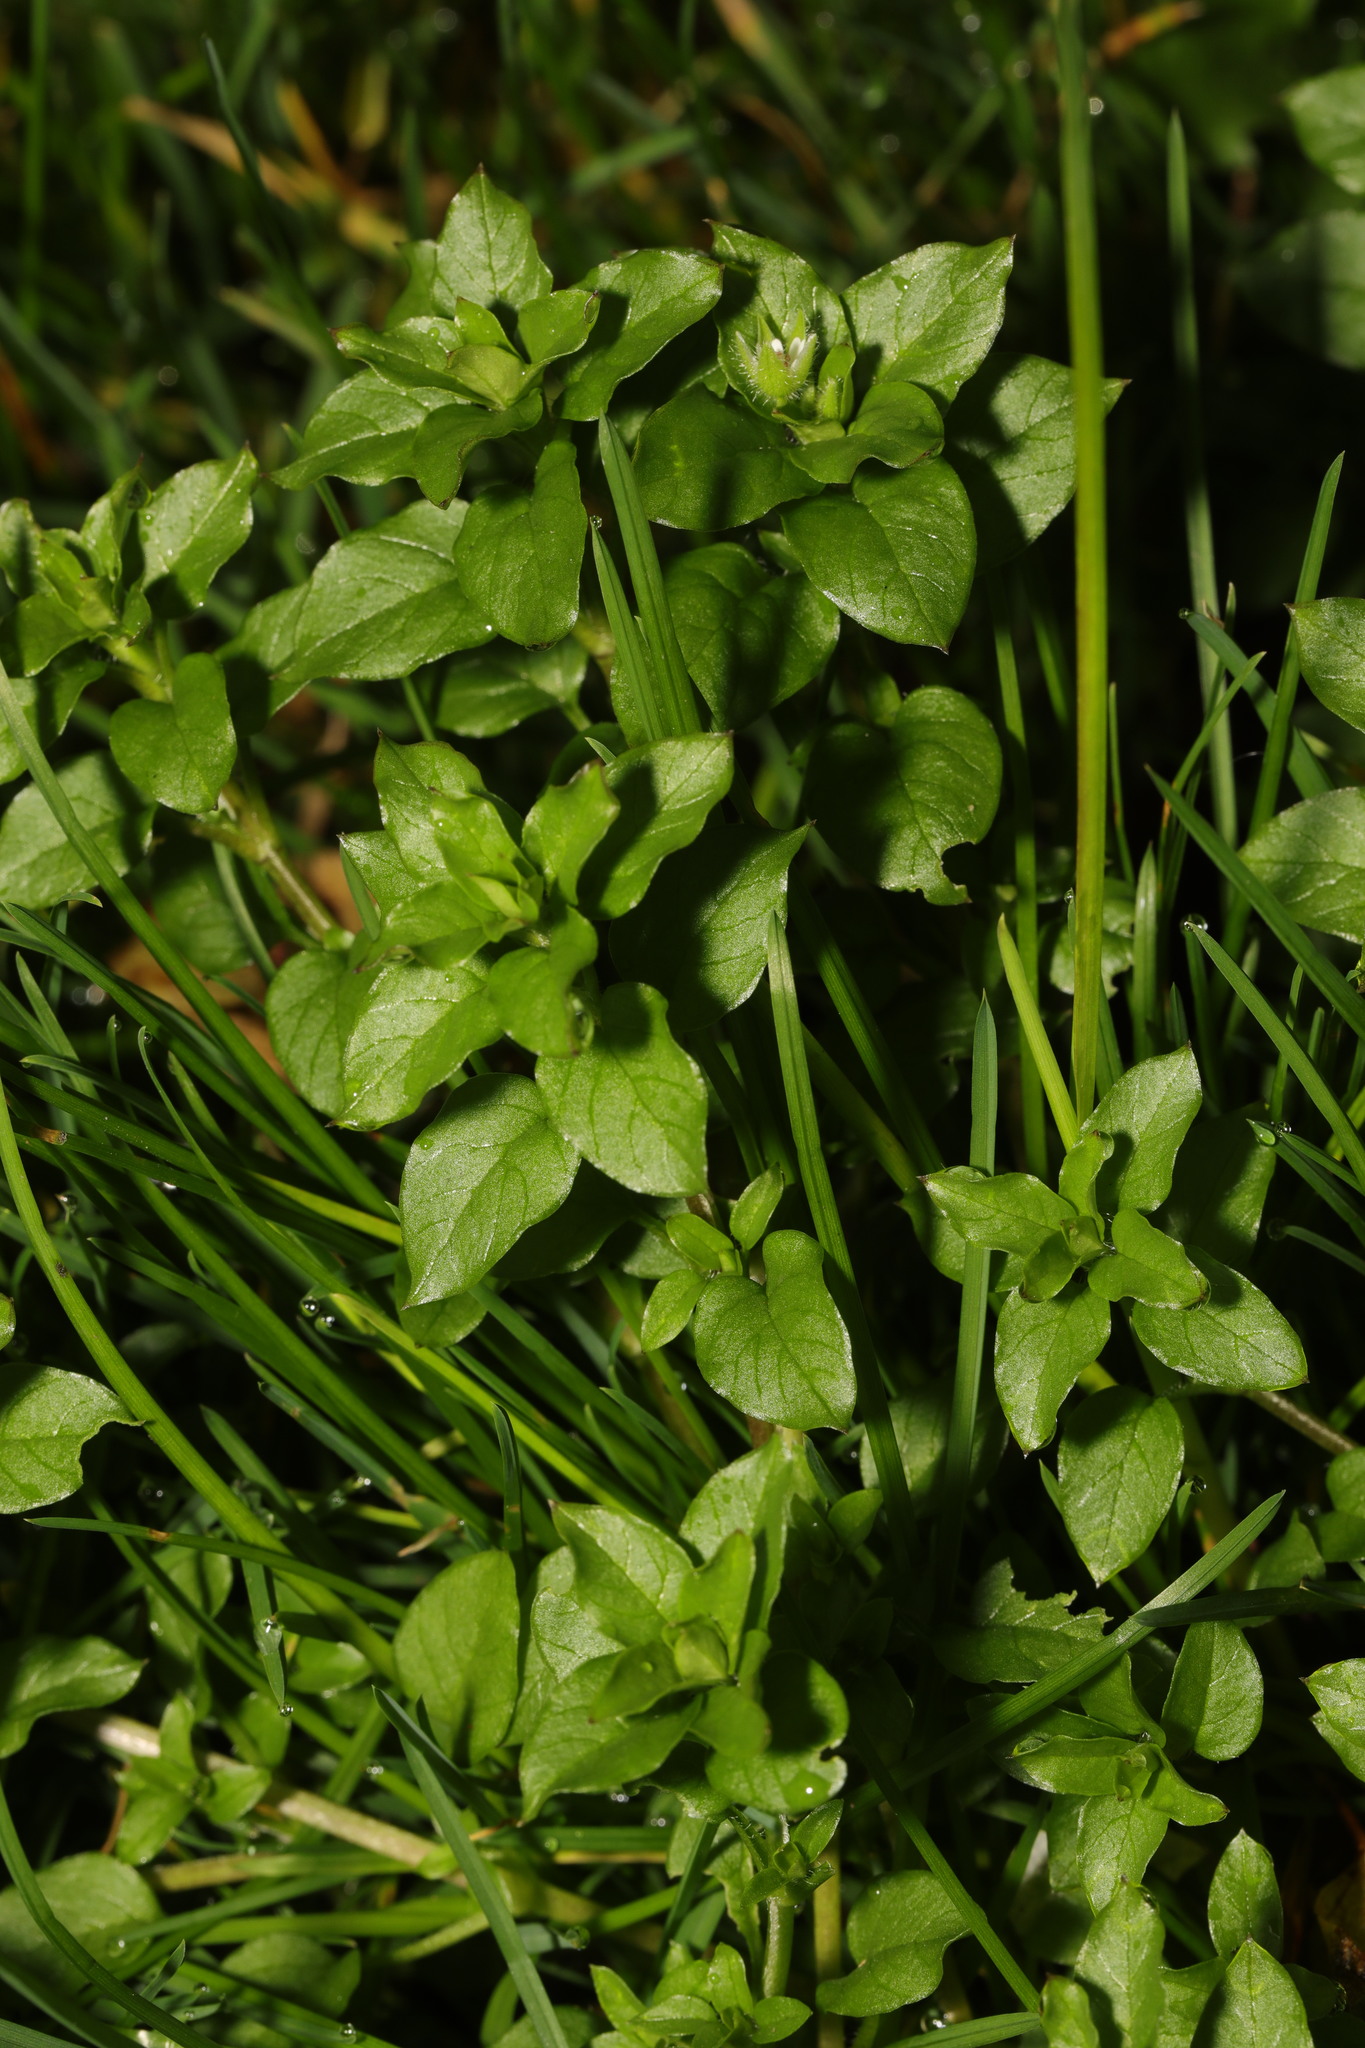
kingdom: Plantae
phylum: Tracheophyta
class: Magnoliopsida
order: Caryophyllales
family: Caryophyllaceae
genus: Stellaria
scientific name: Stellaria media
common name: Common chickweed
